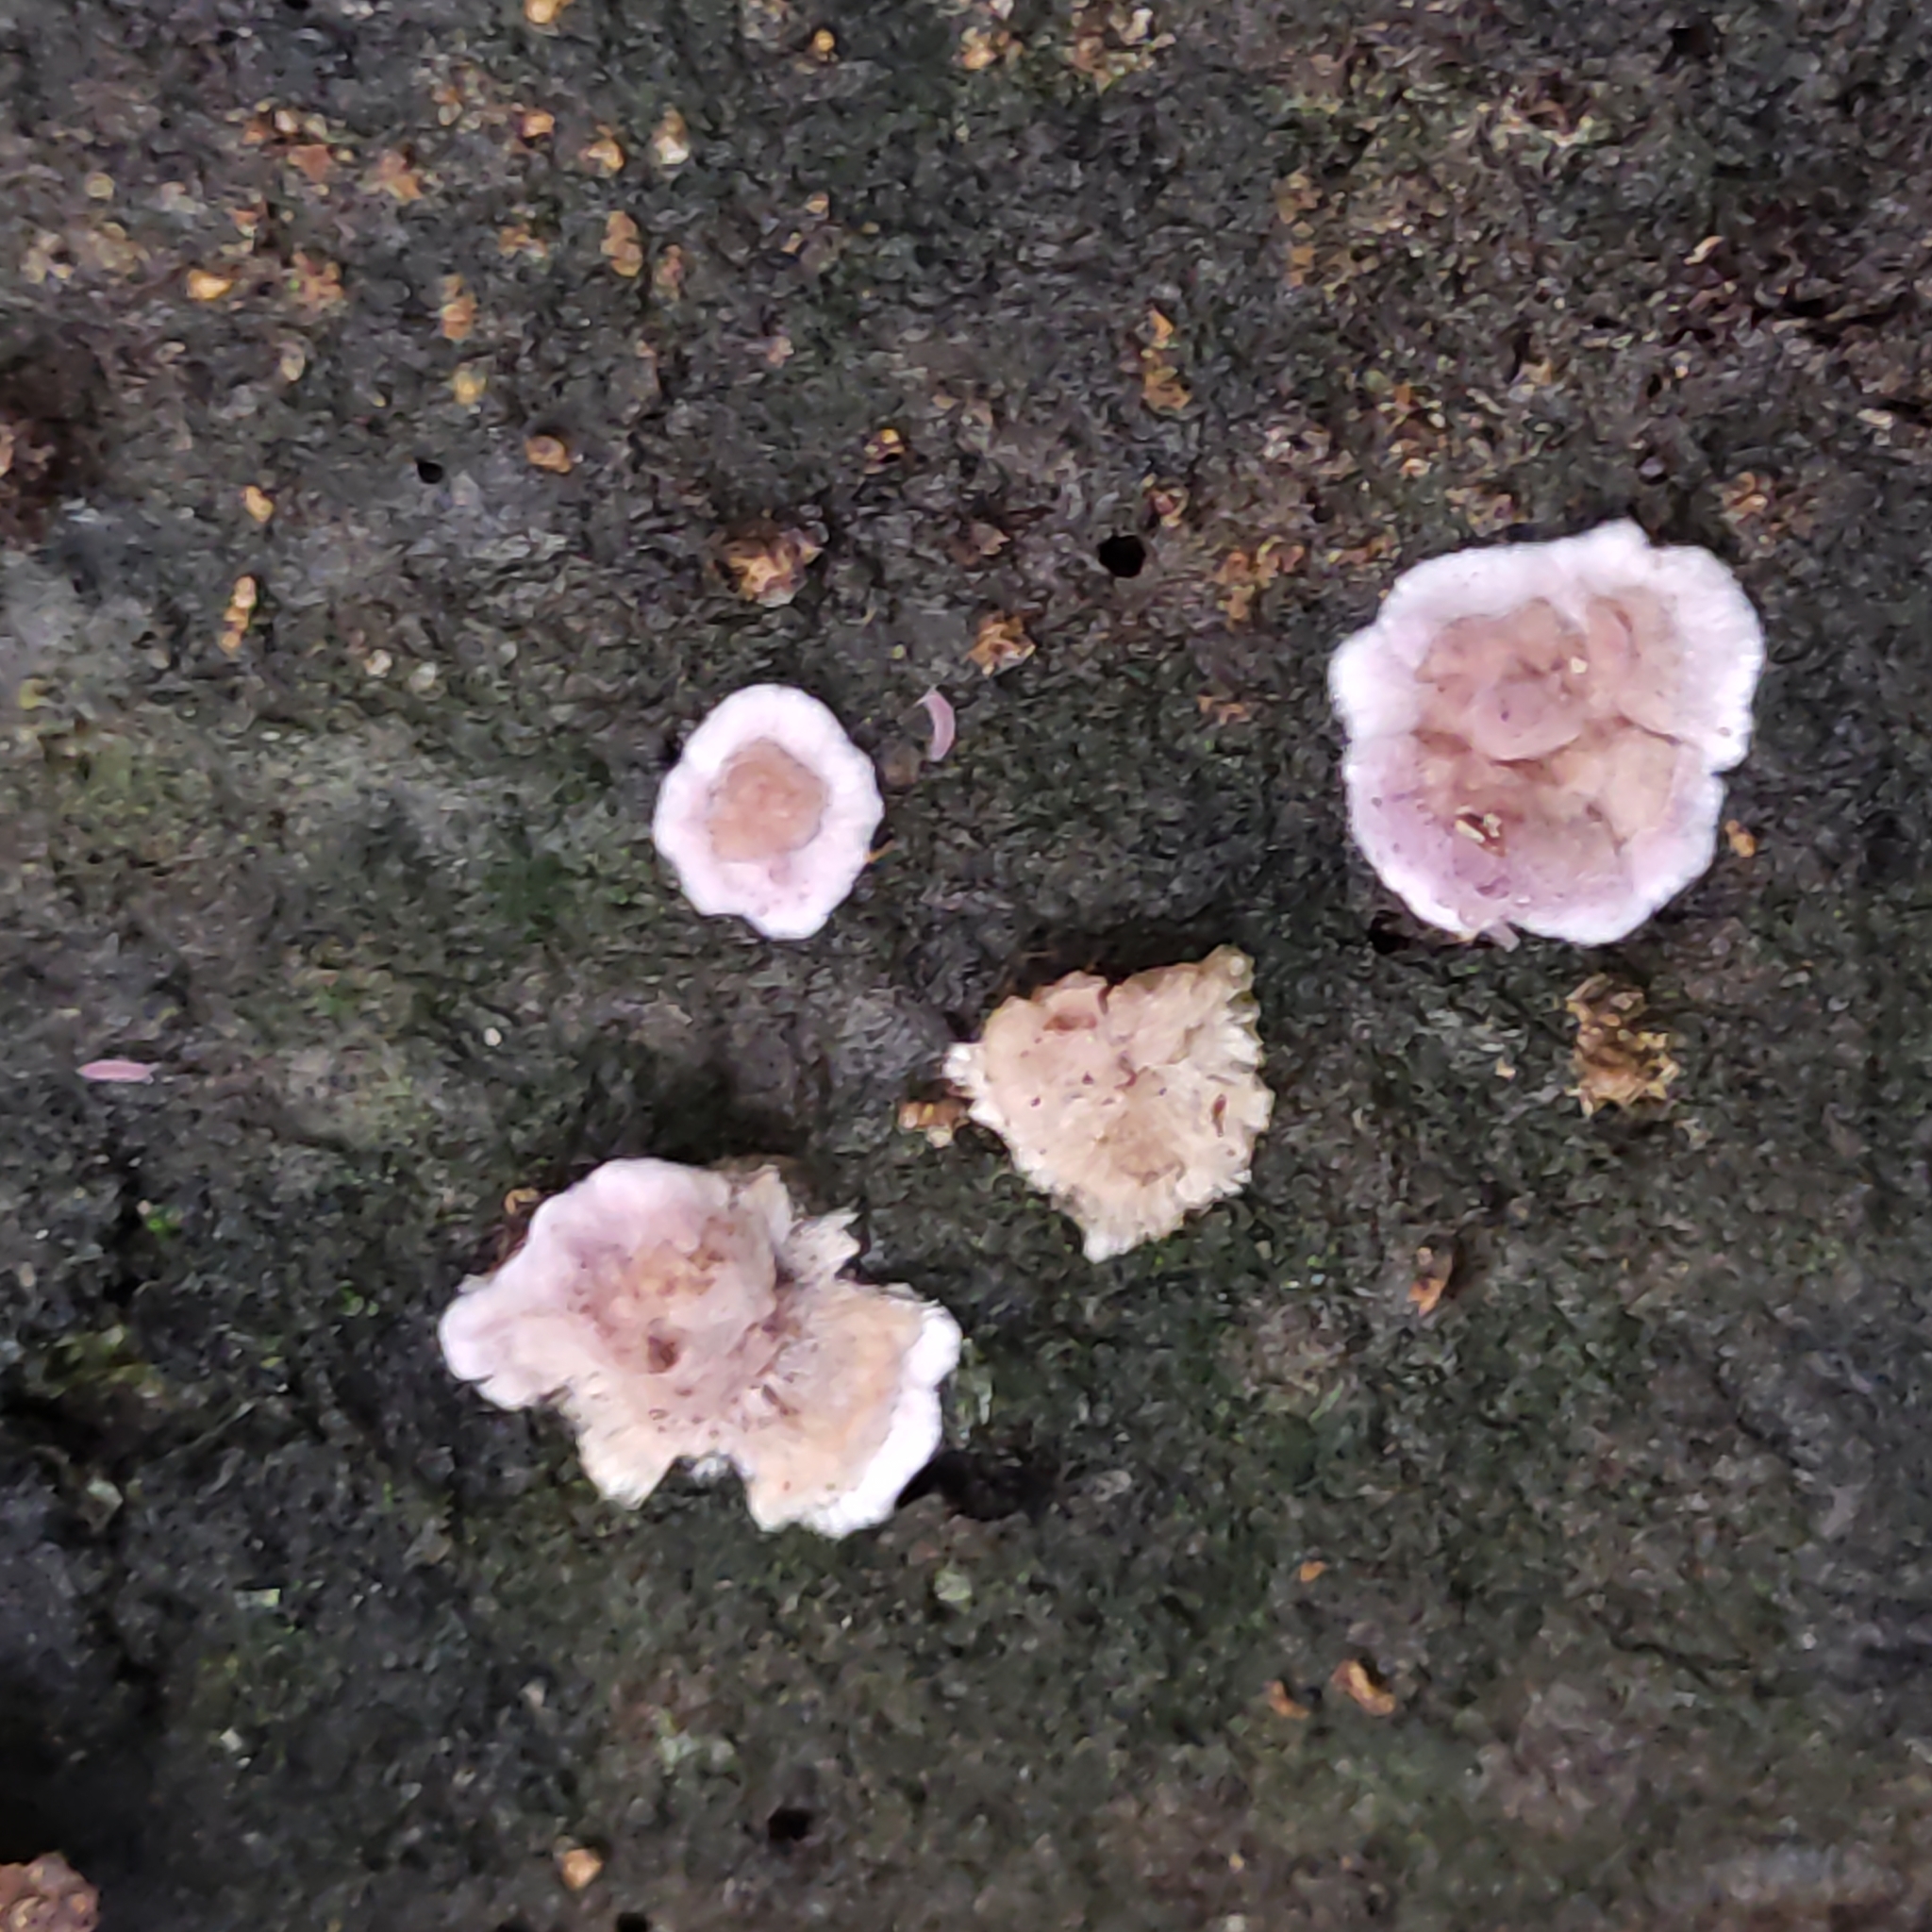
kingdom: Fungi
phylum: Basidiomycota
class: Agaricomycetes
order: Agaricales
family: Cyphellaceae
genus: Chondrostereum
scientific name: Chondrostereum purpureum
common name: Silver leaf disease
